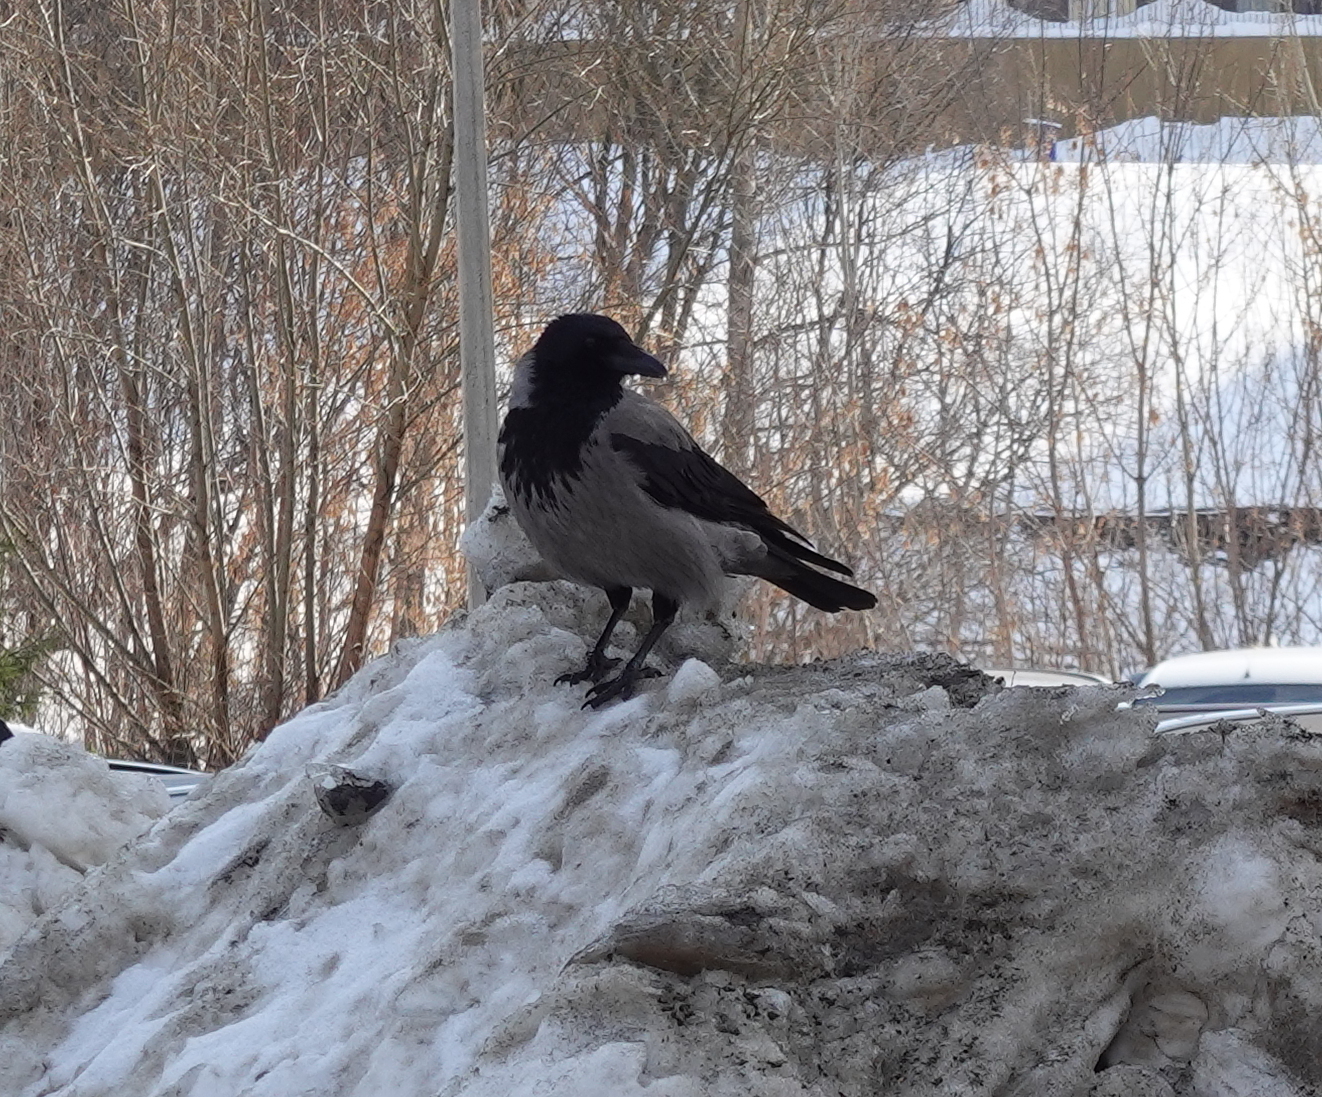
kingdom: Animalia
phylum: Chordata
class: Aves
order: Passeriformes
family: Corvidae
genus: Corvus
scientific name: Corvus cornix
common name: Hooded crow
